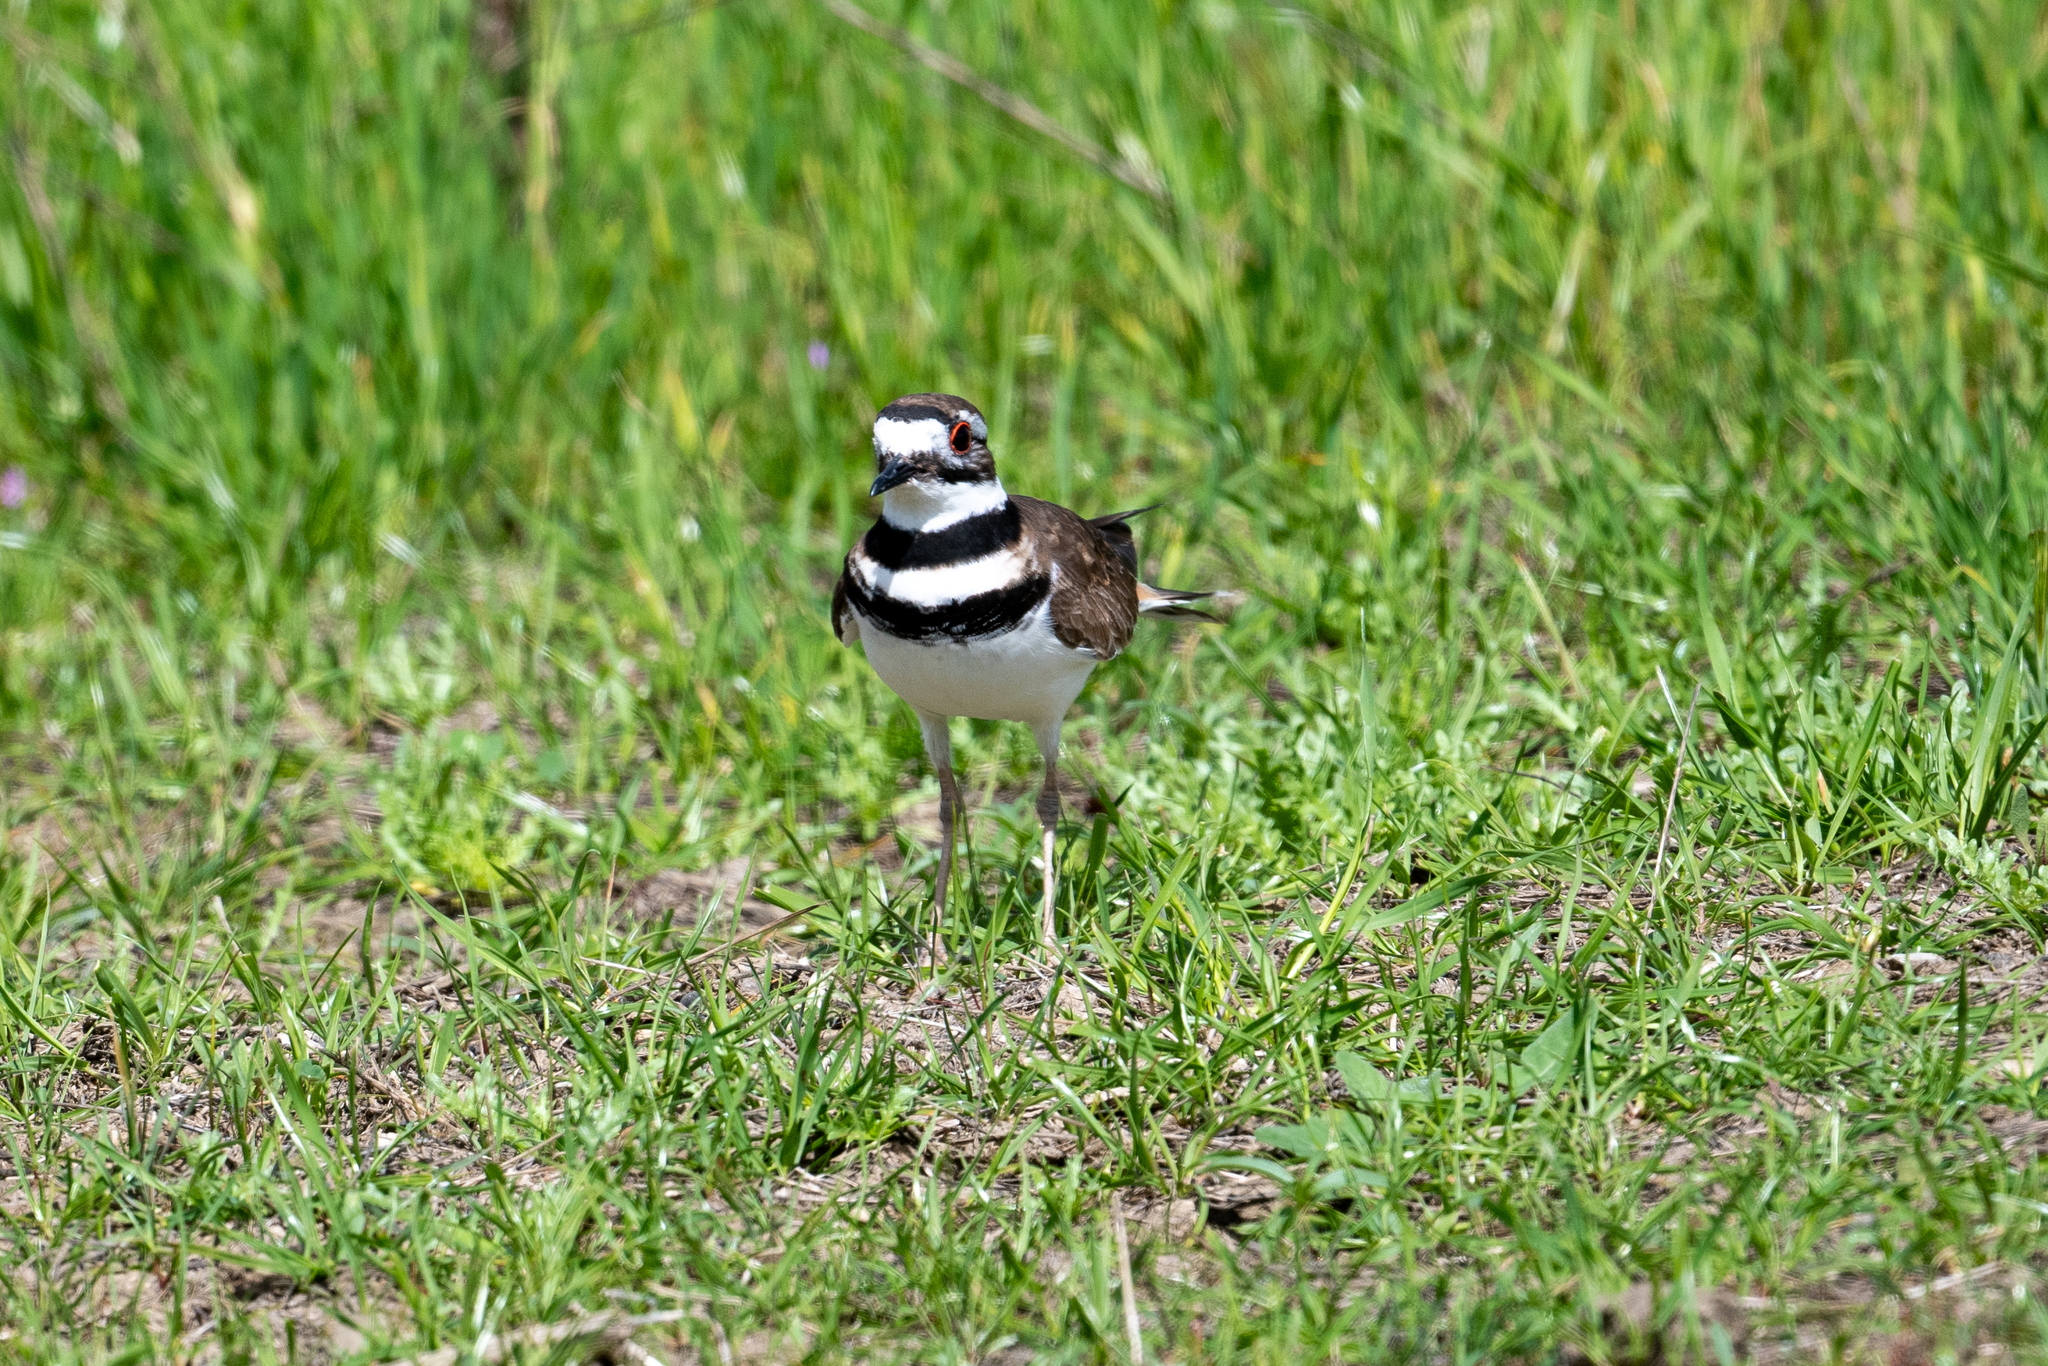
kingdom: Animalia
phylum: Chordata
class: Aves
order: Charadriiformes
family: Charadriidae
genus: Charadrius
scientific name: Charadrius vociferus
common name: Killdeer
